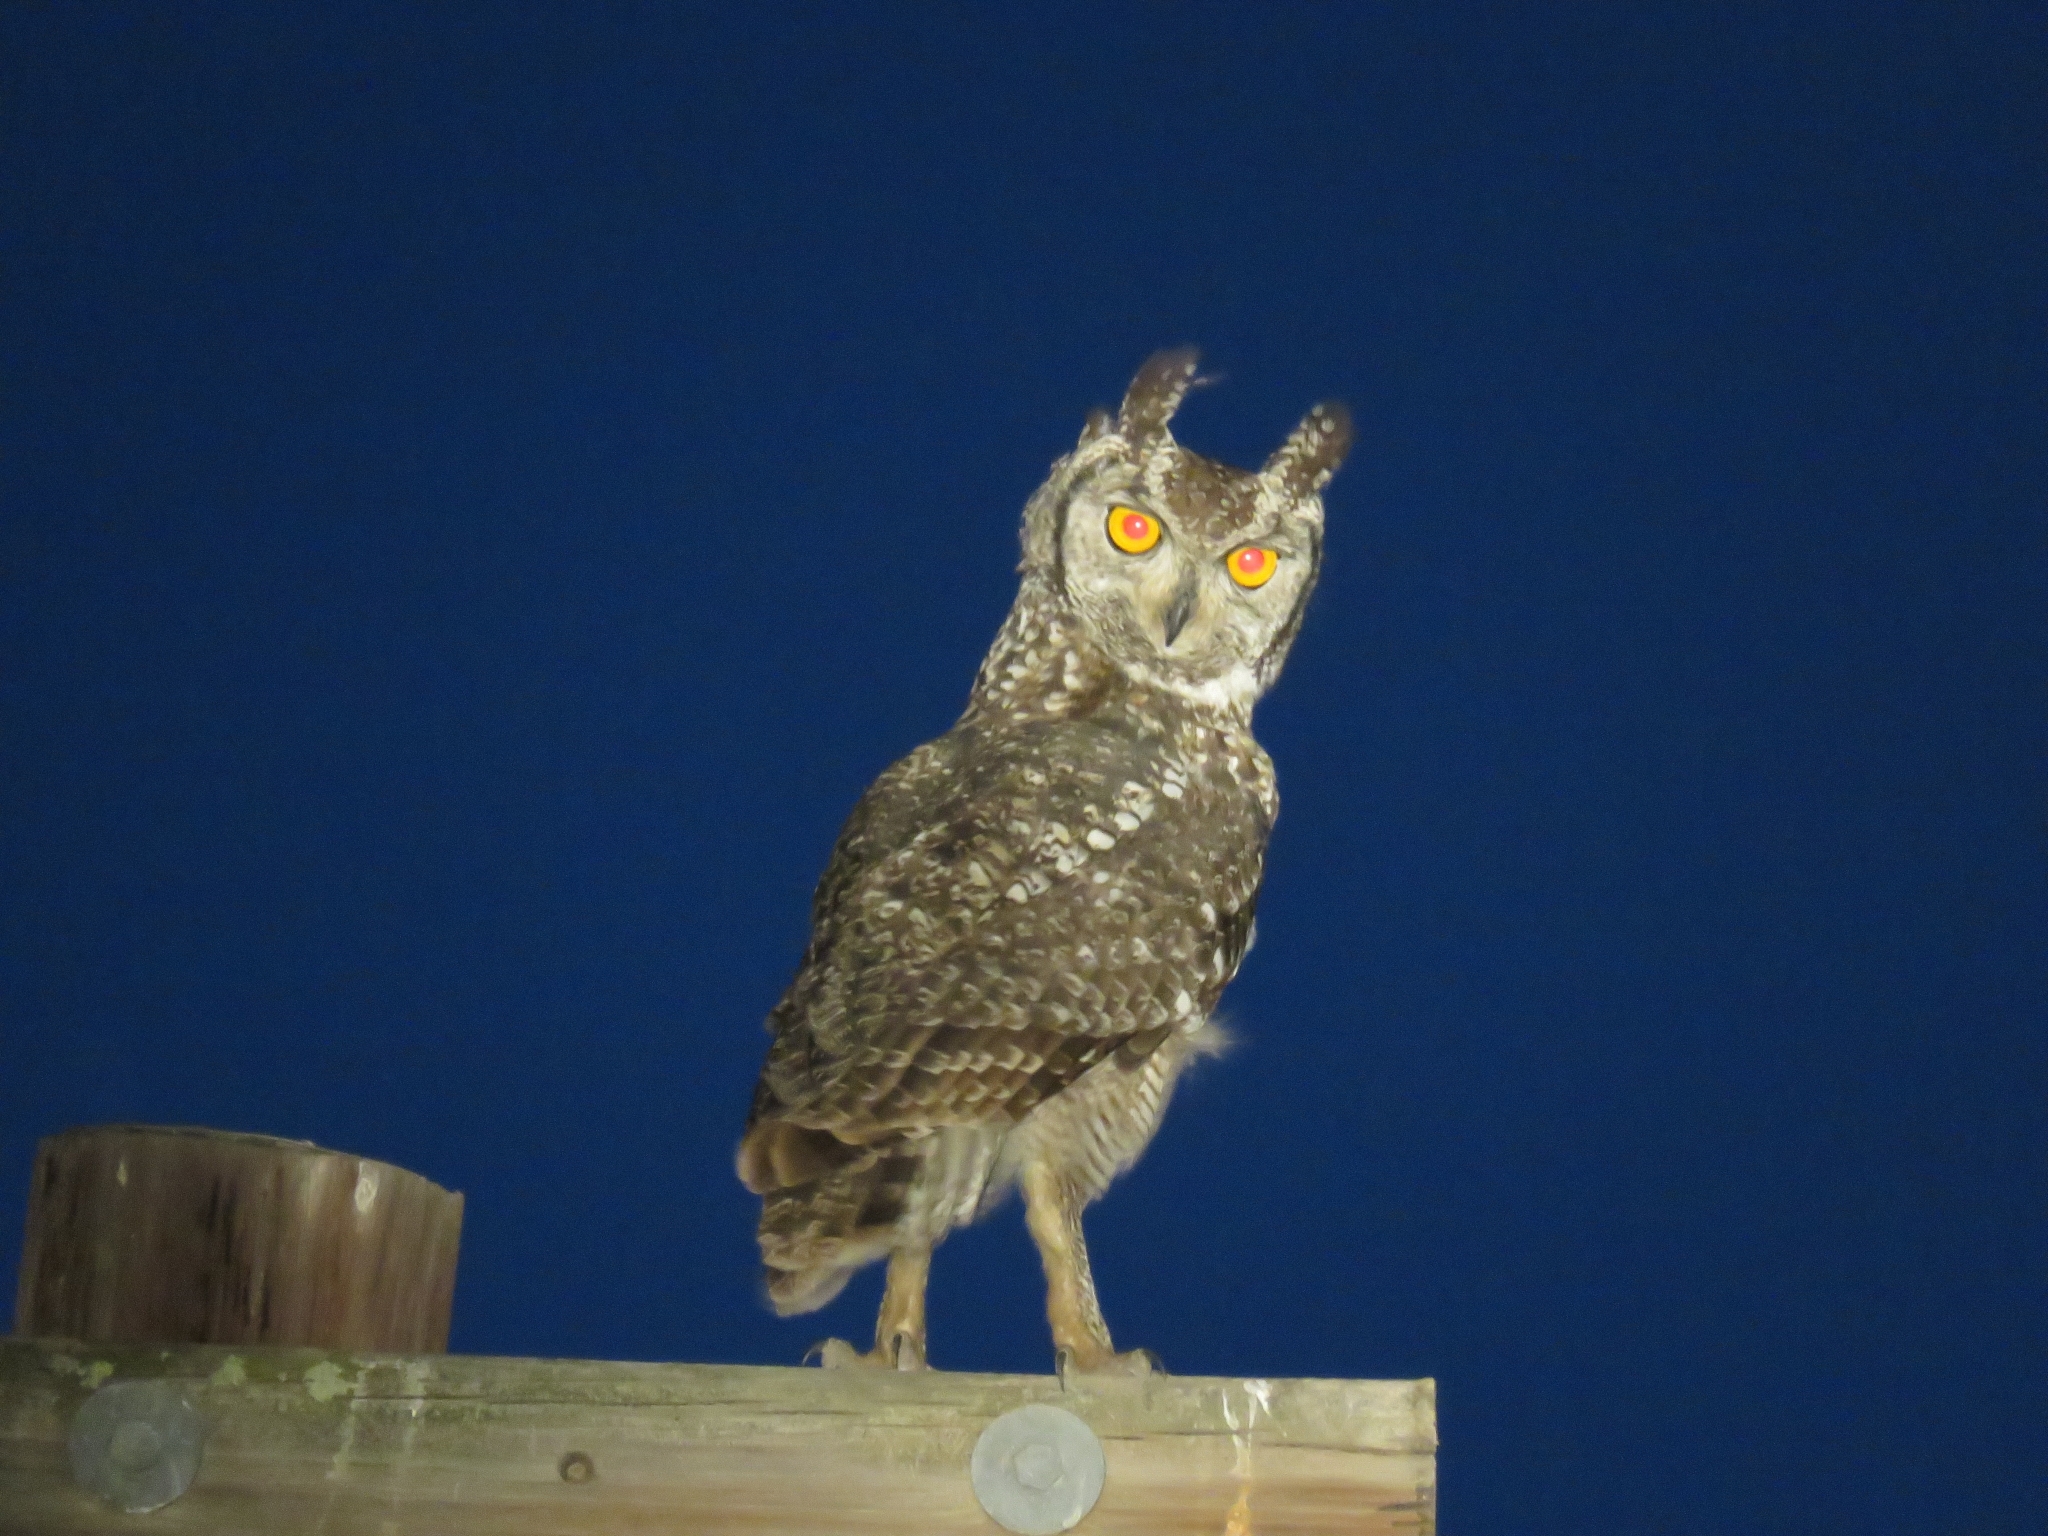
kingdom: Animalia
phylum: Chordata
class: Aves
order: Strigiformes
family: Strigidae
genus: Bubo
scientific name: Bubo africanus
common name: Spotted eagle-owl
